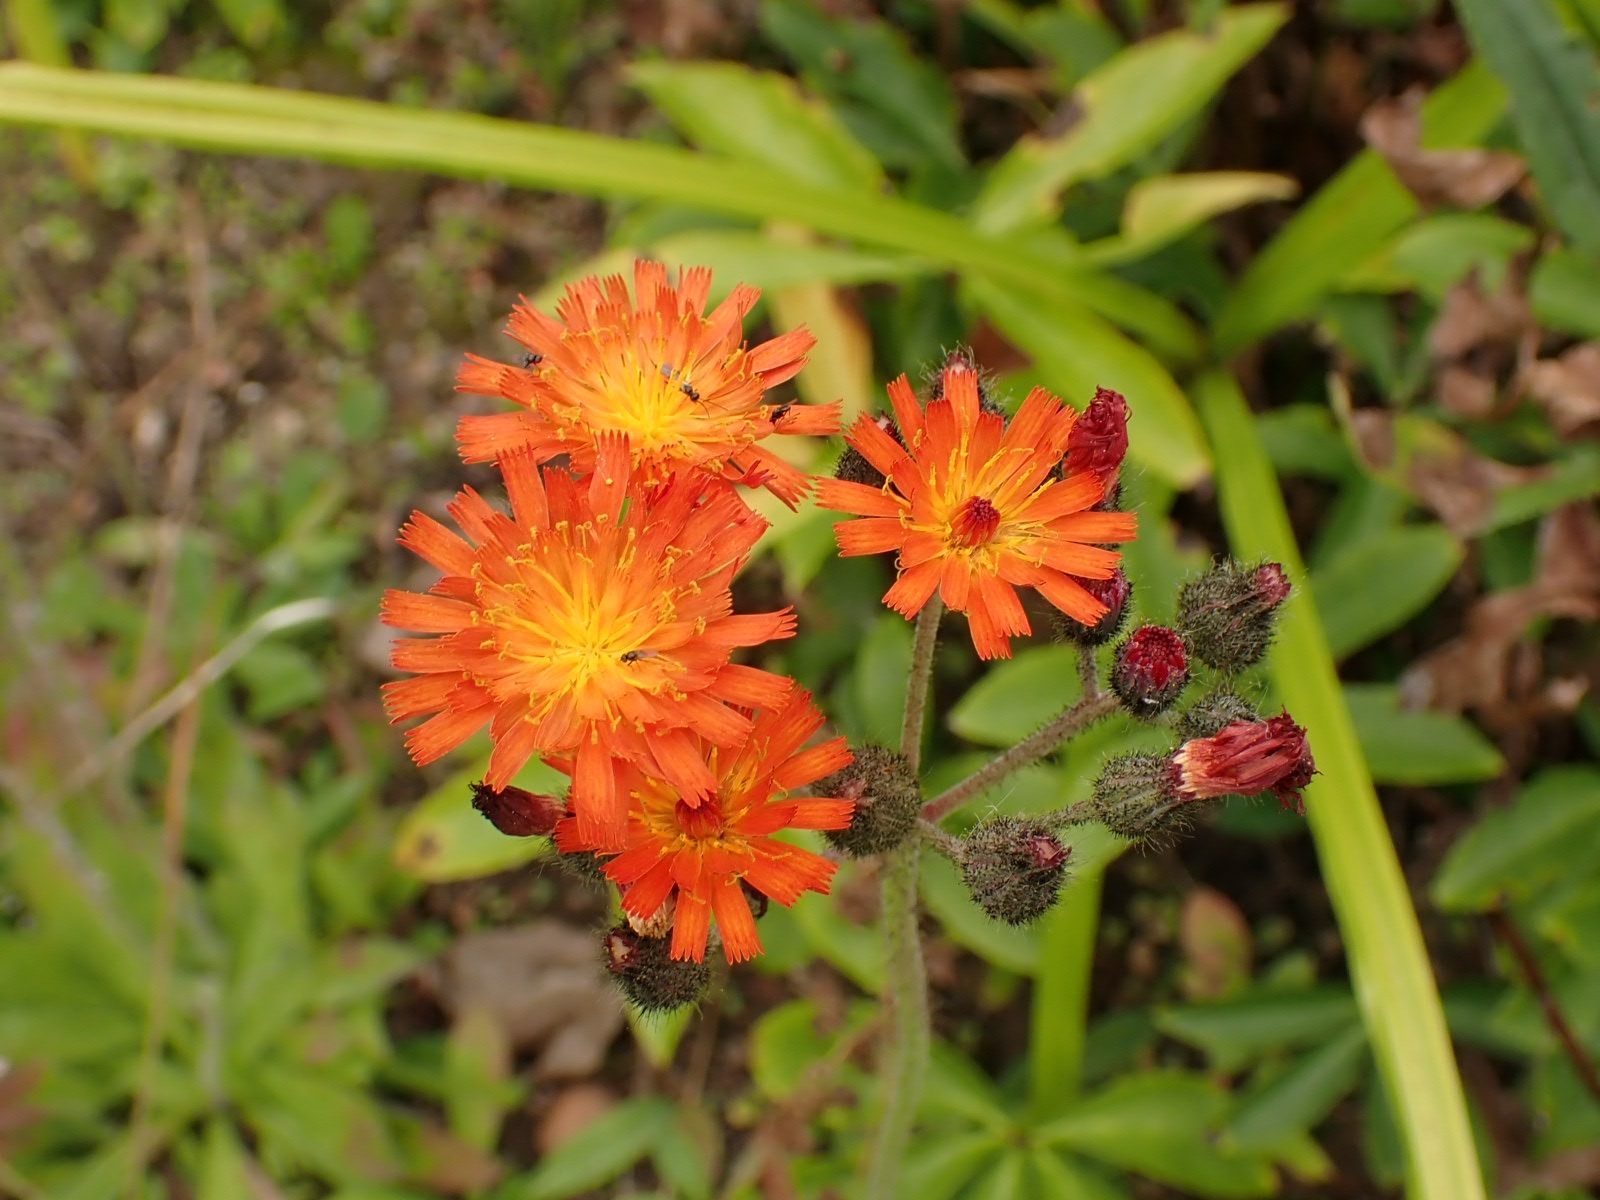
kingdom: Plantae
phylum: Tracheophyta
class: Magnoliopsida
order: Asterales
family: Asteraceae
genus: Pilosella
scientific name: Pilosella aurantiaca
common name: Fox-and-cubs
